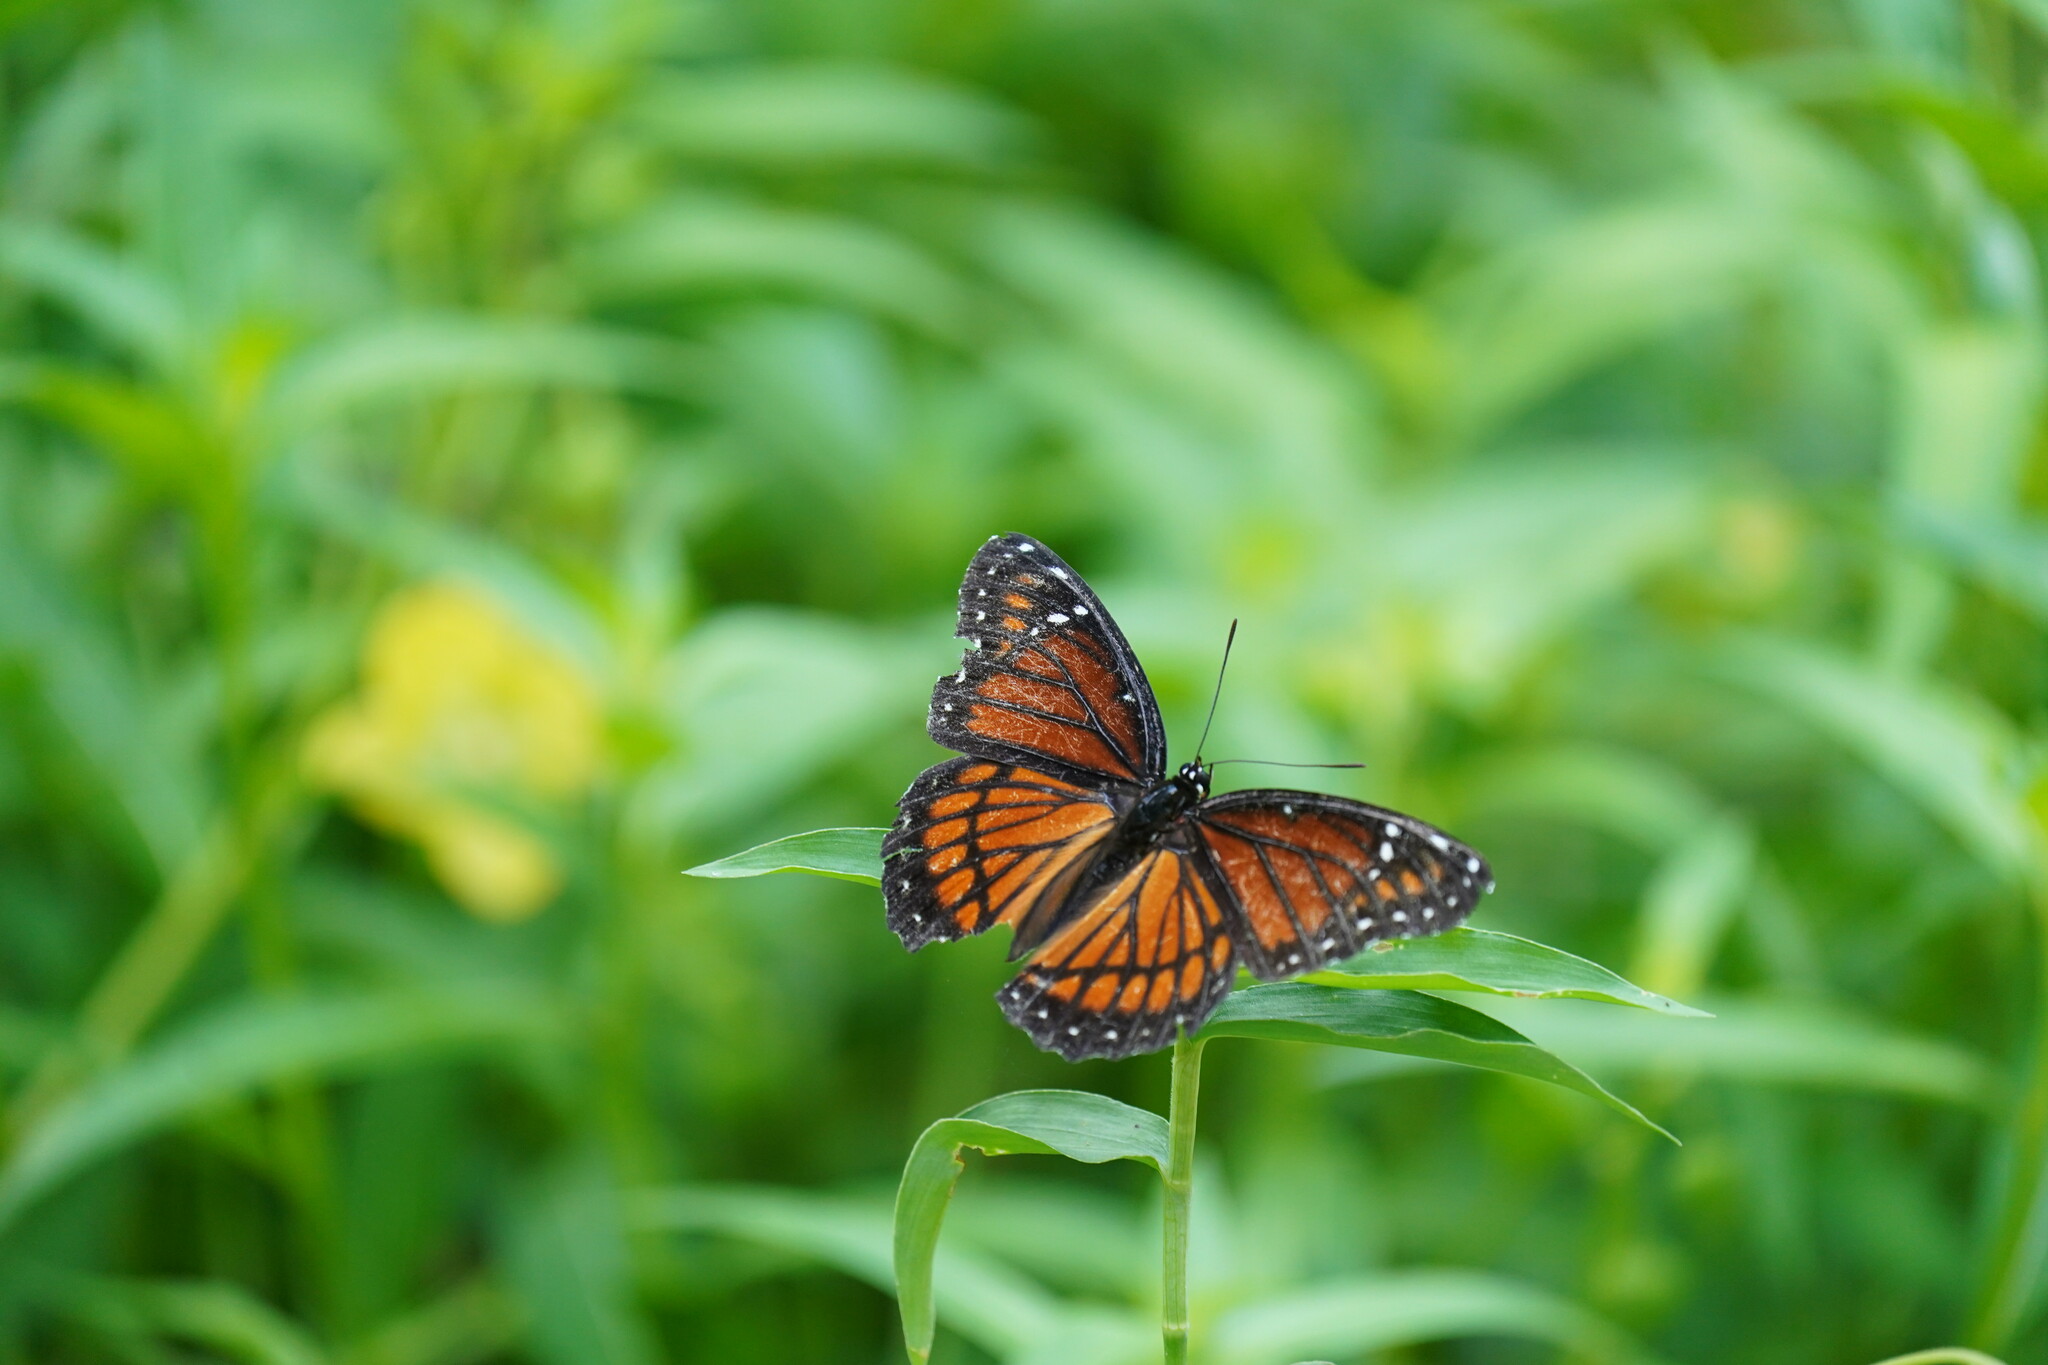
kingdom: Animalia
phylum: Arthropoda
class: Insecta
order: Lepidoptera
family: Nymphalidae
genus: Limenitis
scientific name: Limenitis archippus
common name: Viceroy
